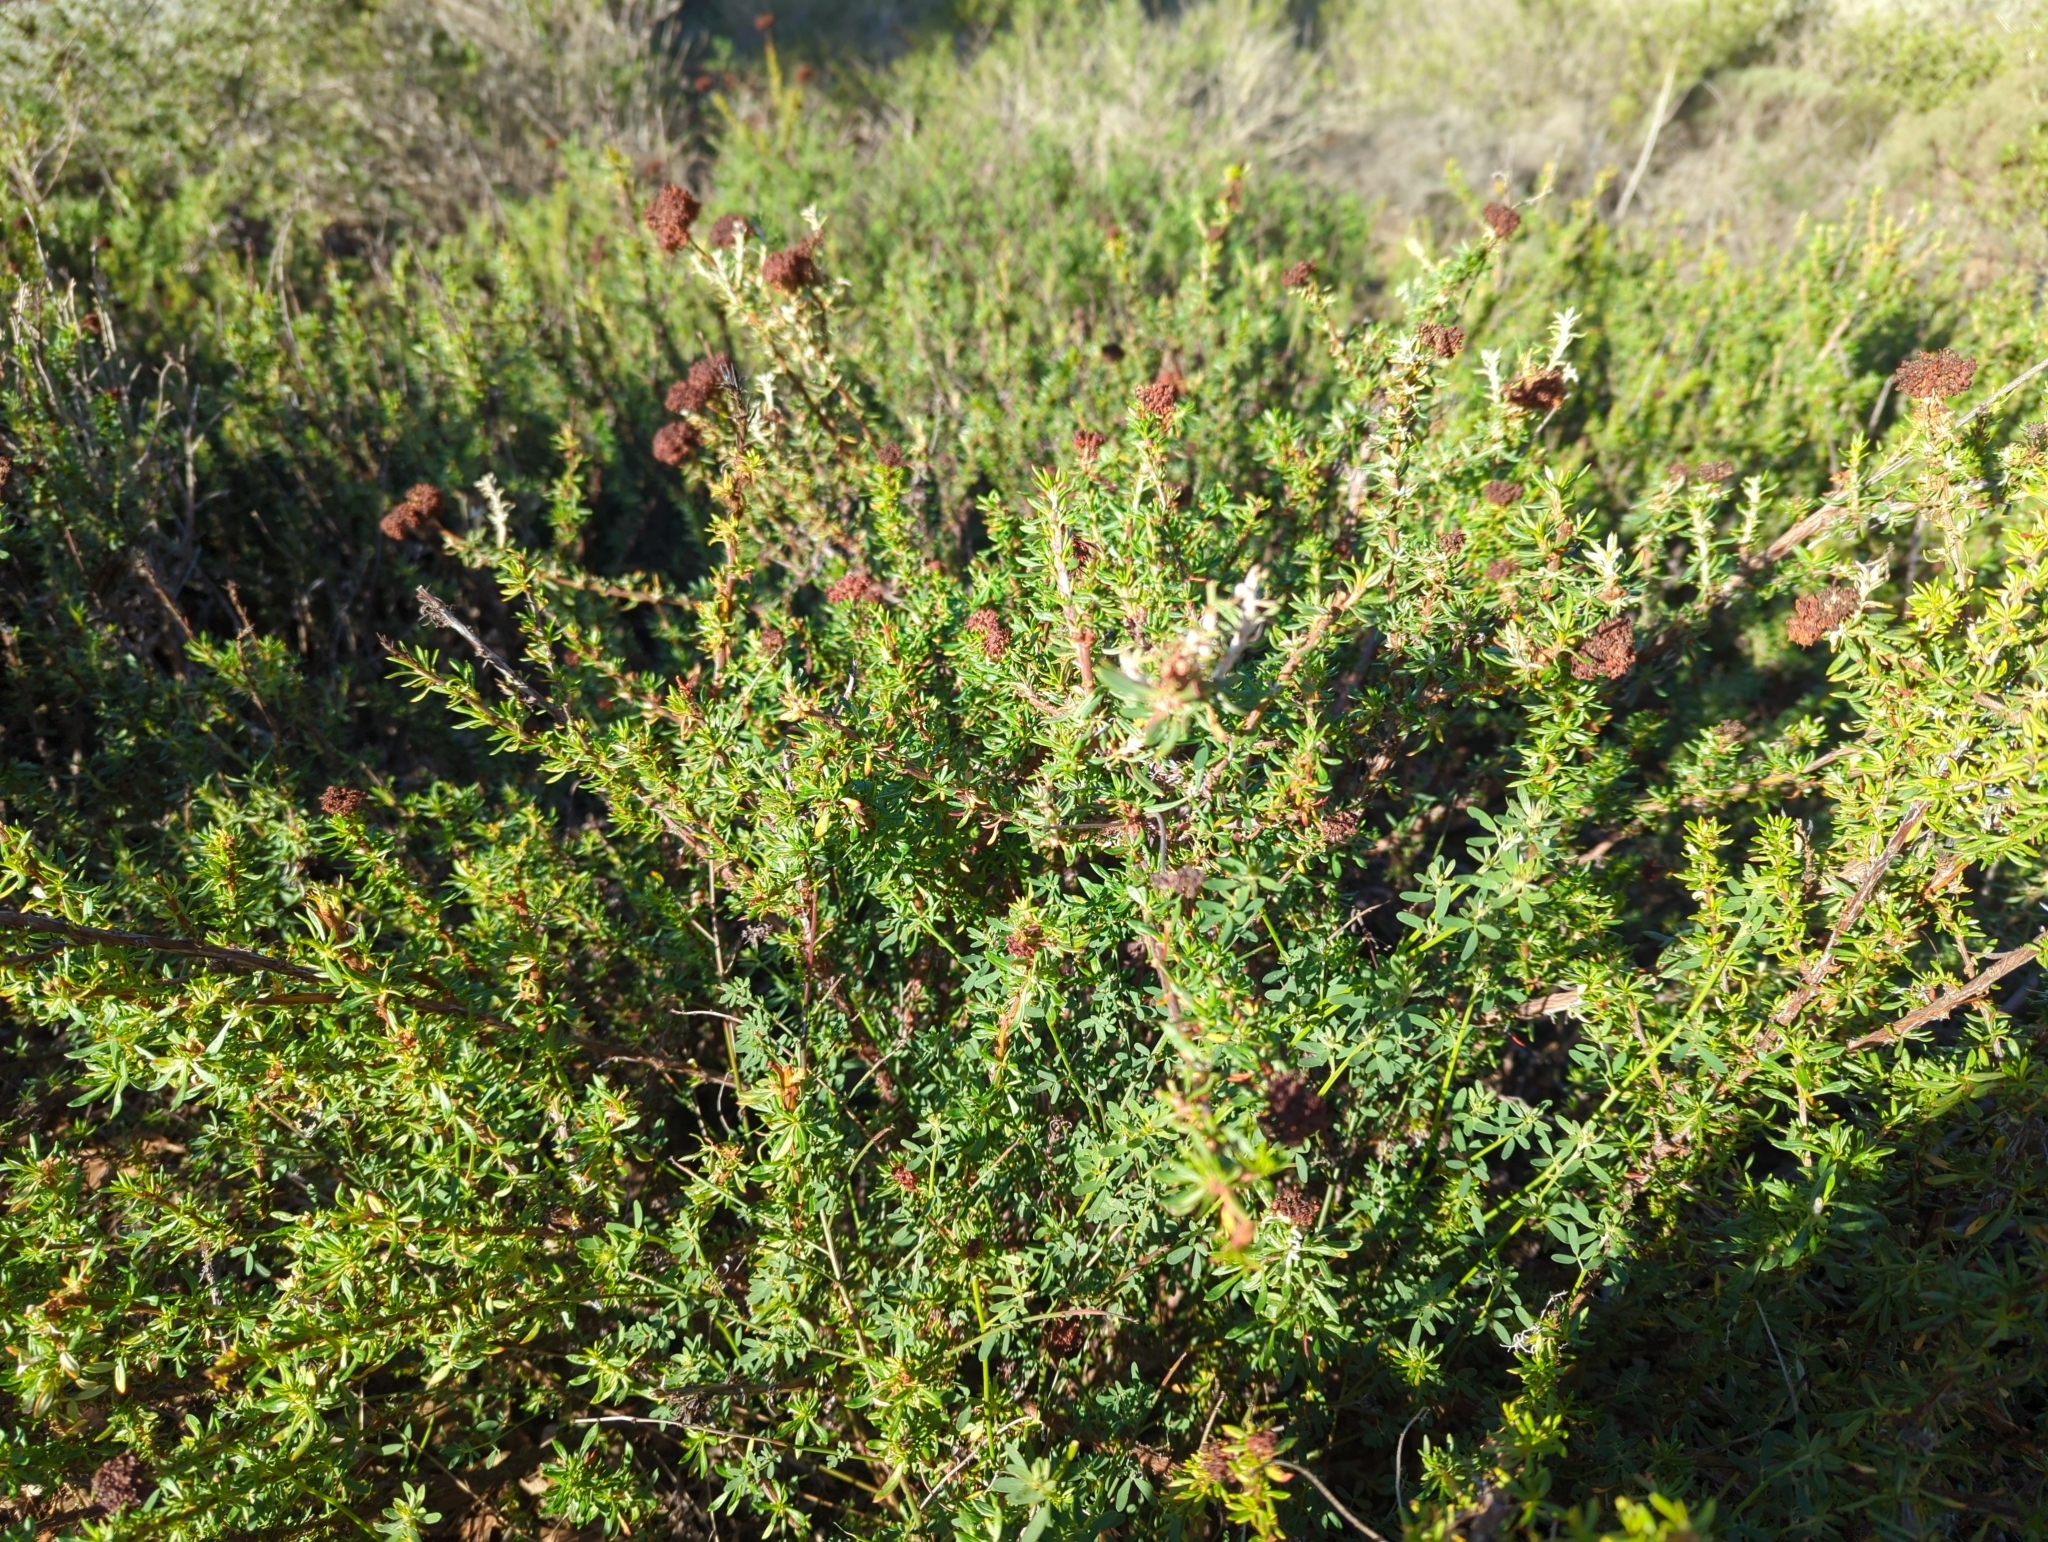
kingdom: Plantae
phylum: Tracheophyta
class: Magnoliopsida
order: Caryophyllales
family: Polygonaceae
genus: Eriogonum
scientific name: Eriogonum fasciculatum
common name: California wild buckwheat
